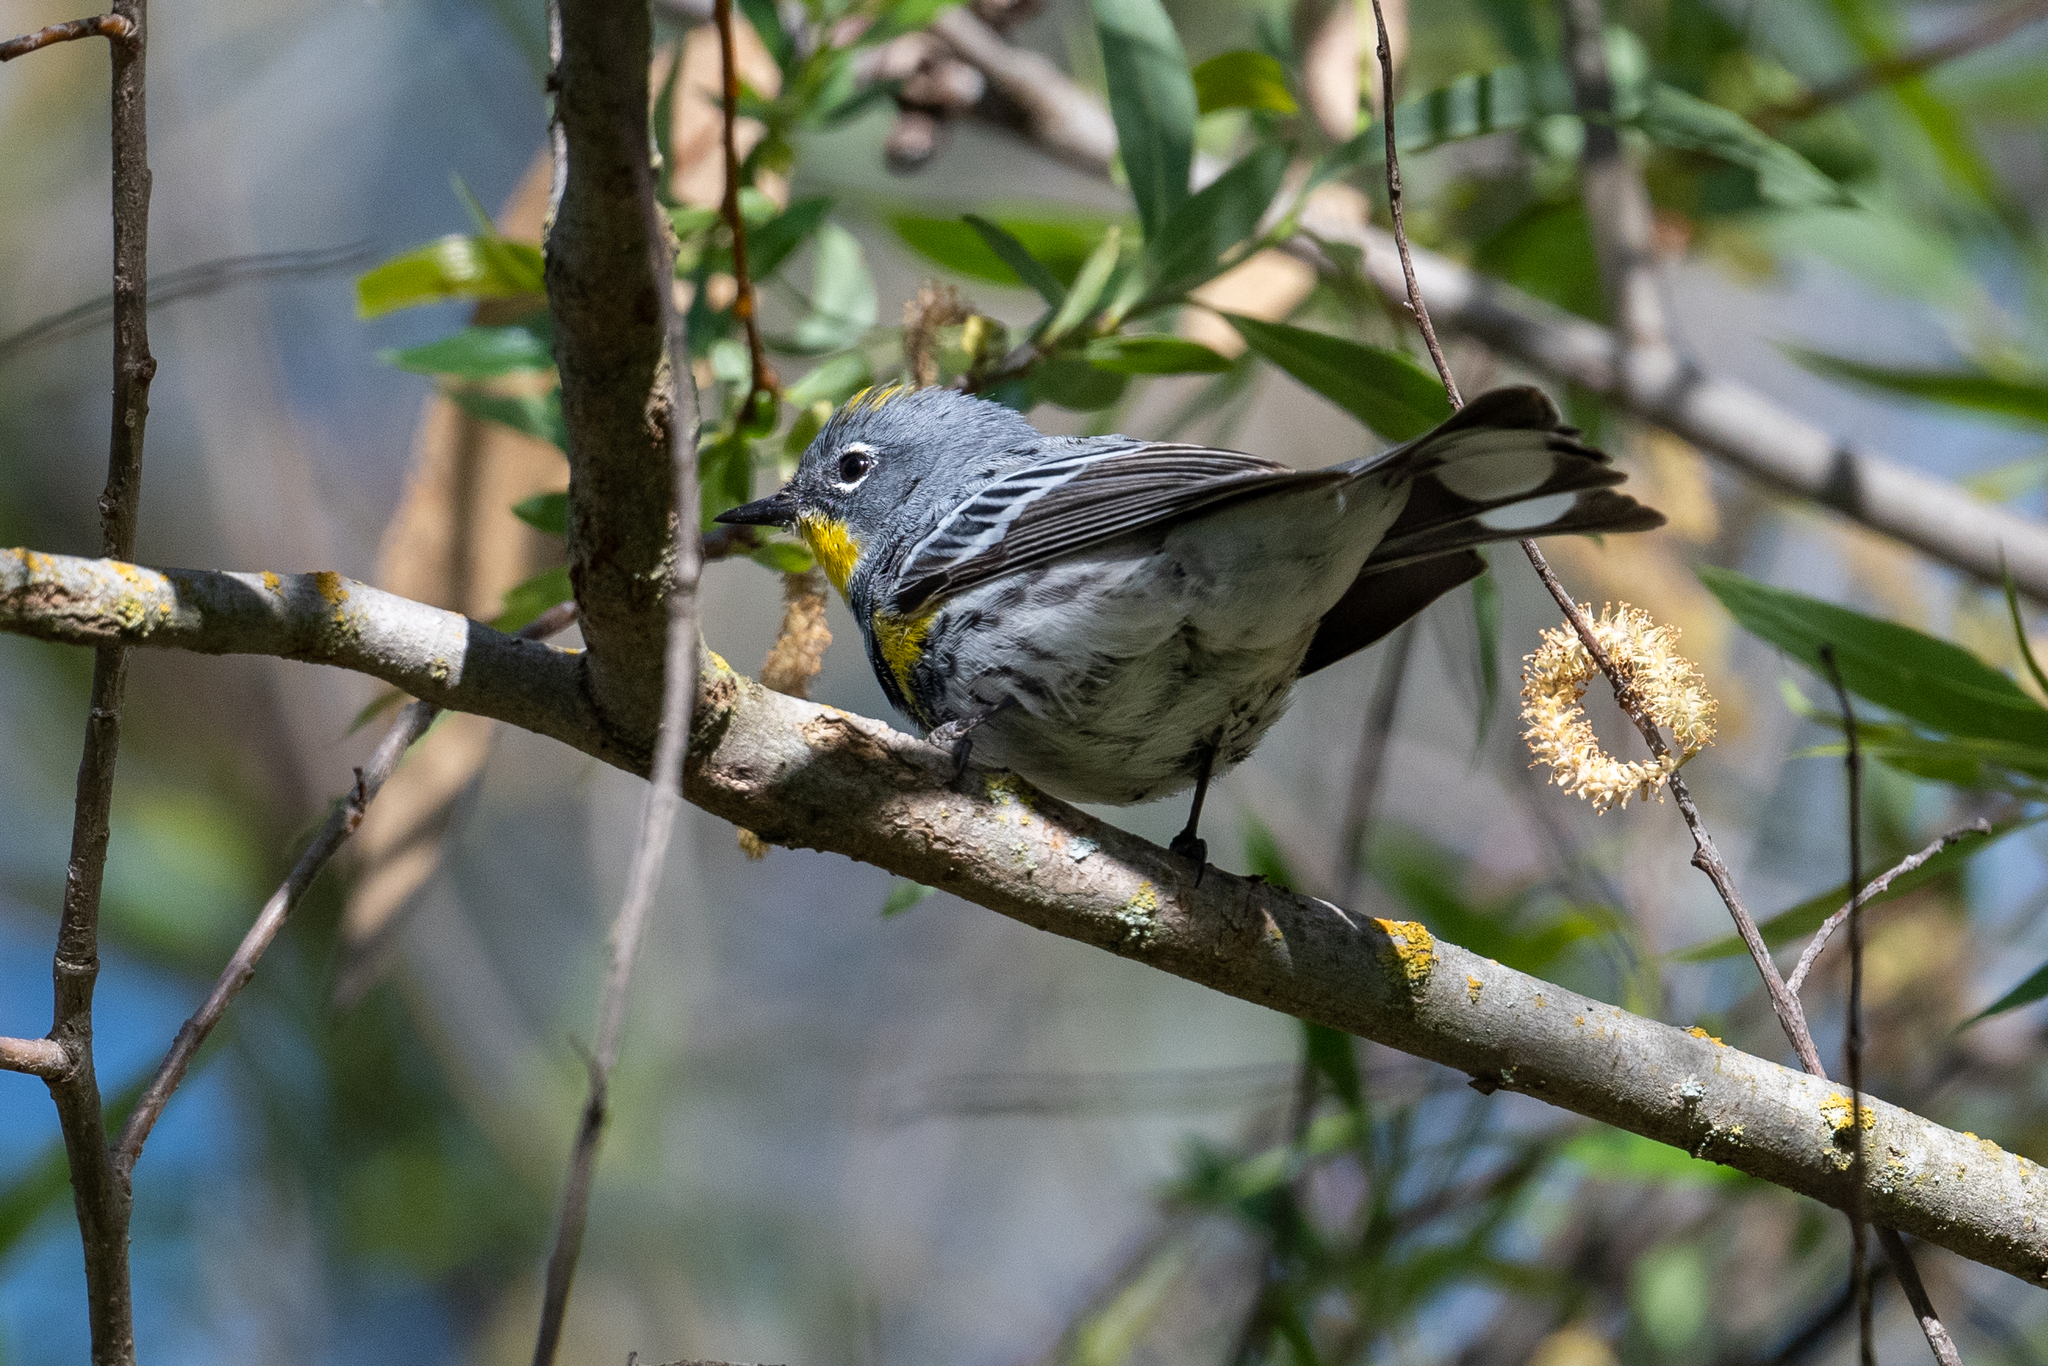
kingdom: Animalia
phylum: Chordata
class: Aves
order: Passeriformes
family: Parulidae
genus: Setophaga
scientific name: Setophaga coronata
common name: Myrtle warbler
